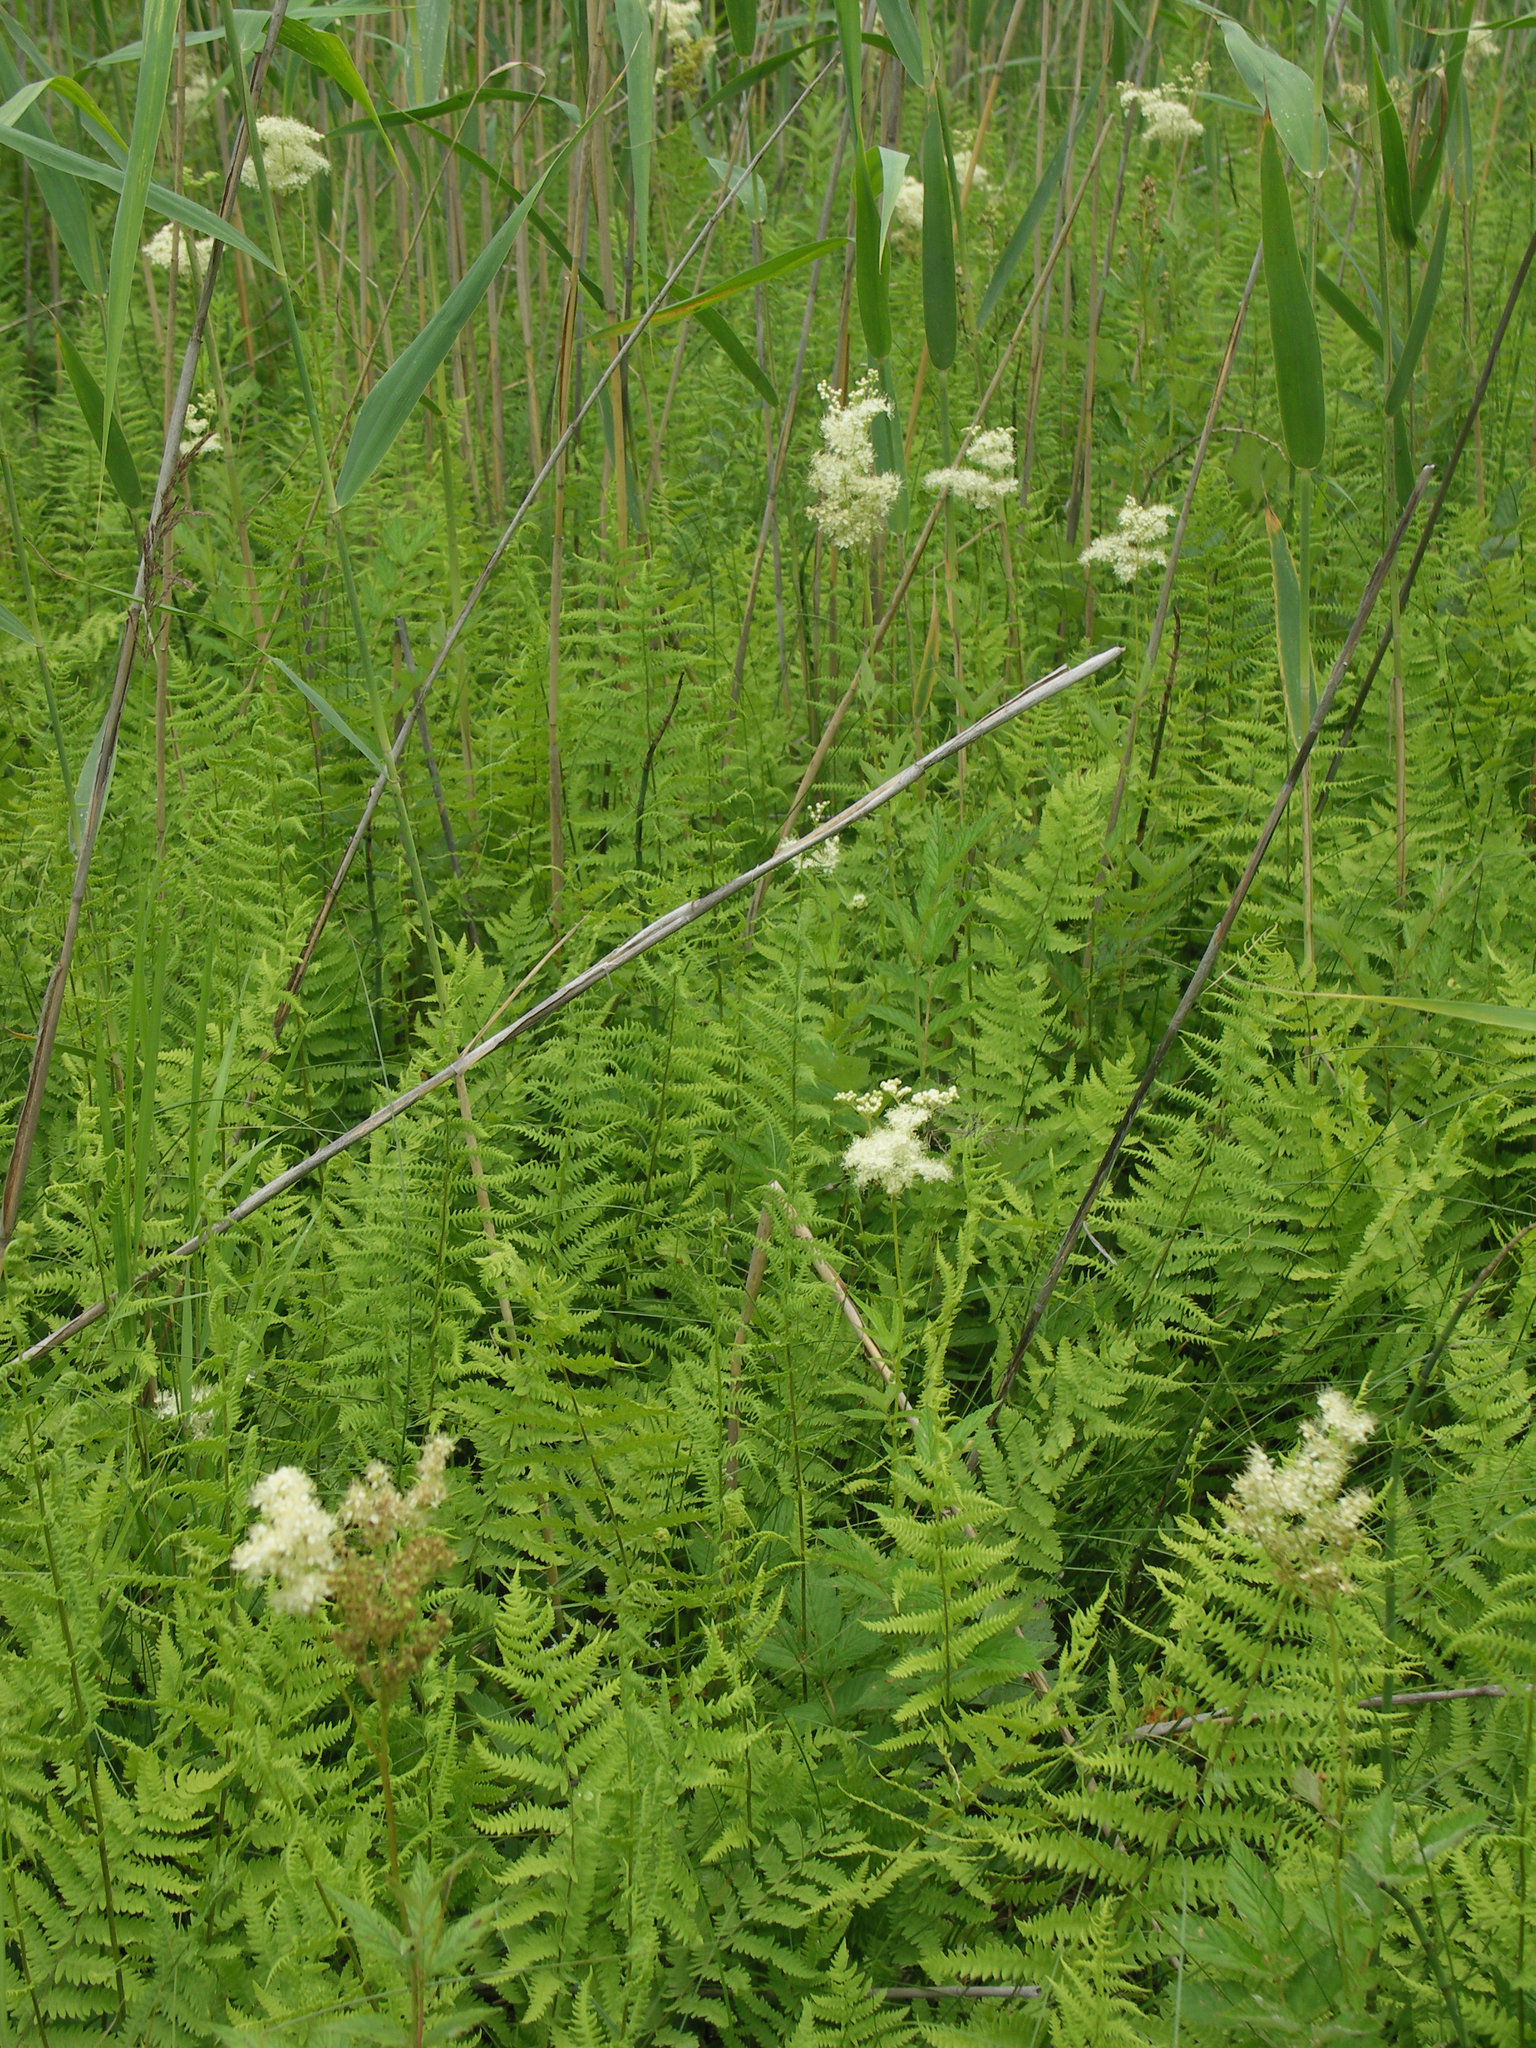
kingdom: Plantae
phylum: Tracheophyta
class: Magnoliopsida
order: Rosales
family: Rosaceae
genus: Filipendula
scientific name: Filipendula ulmaria
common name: Meadowsweet
